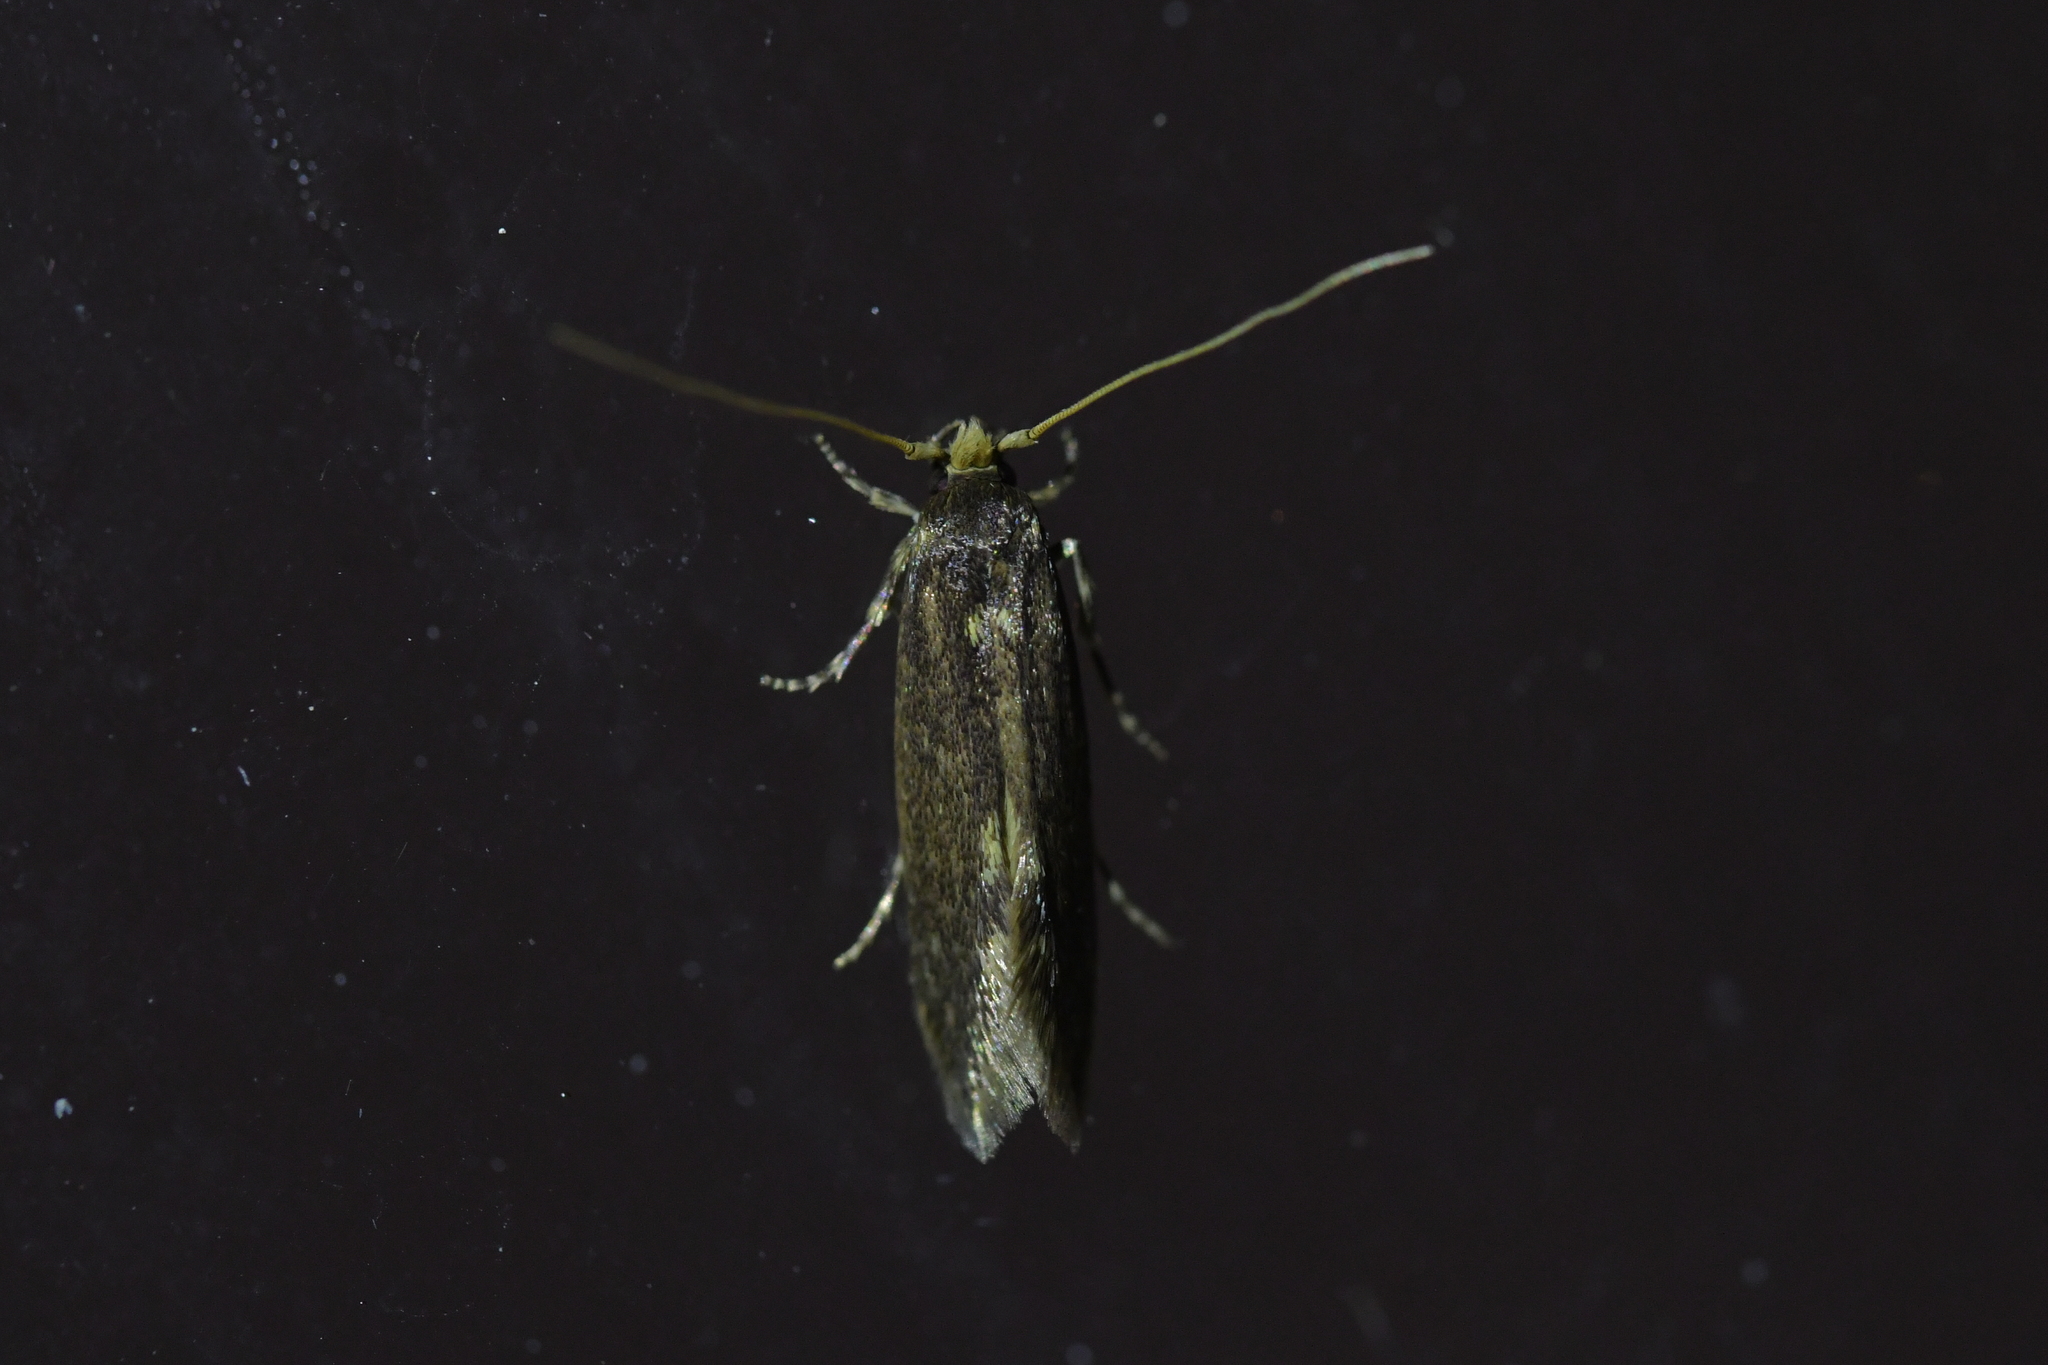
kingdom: Animalia
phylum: Arthropoda
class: Insecta
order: Lepidoptera
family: Tineidae
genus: Opogona
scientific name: Opogona omoscopa
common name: Moth
